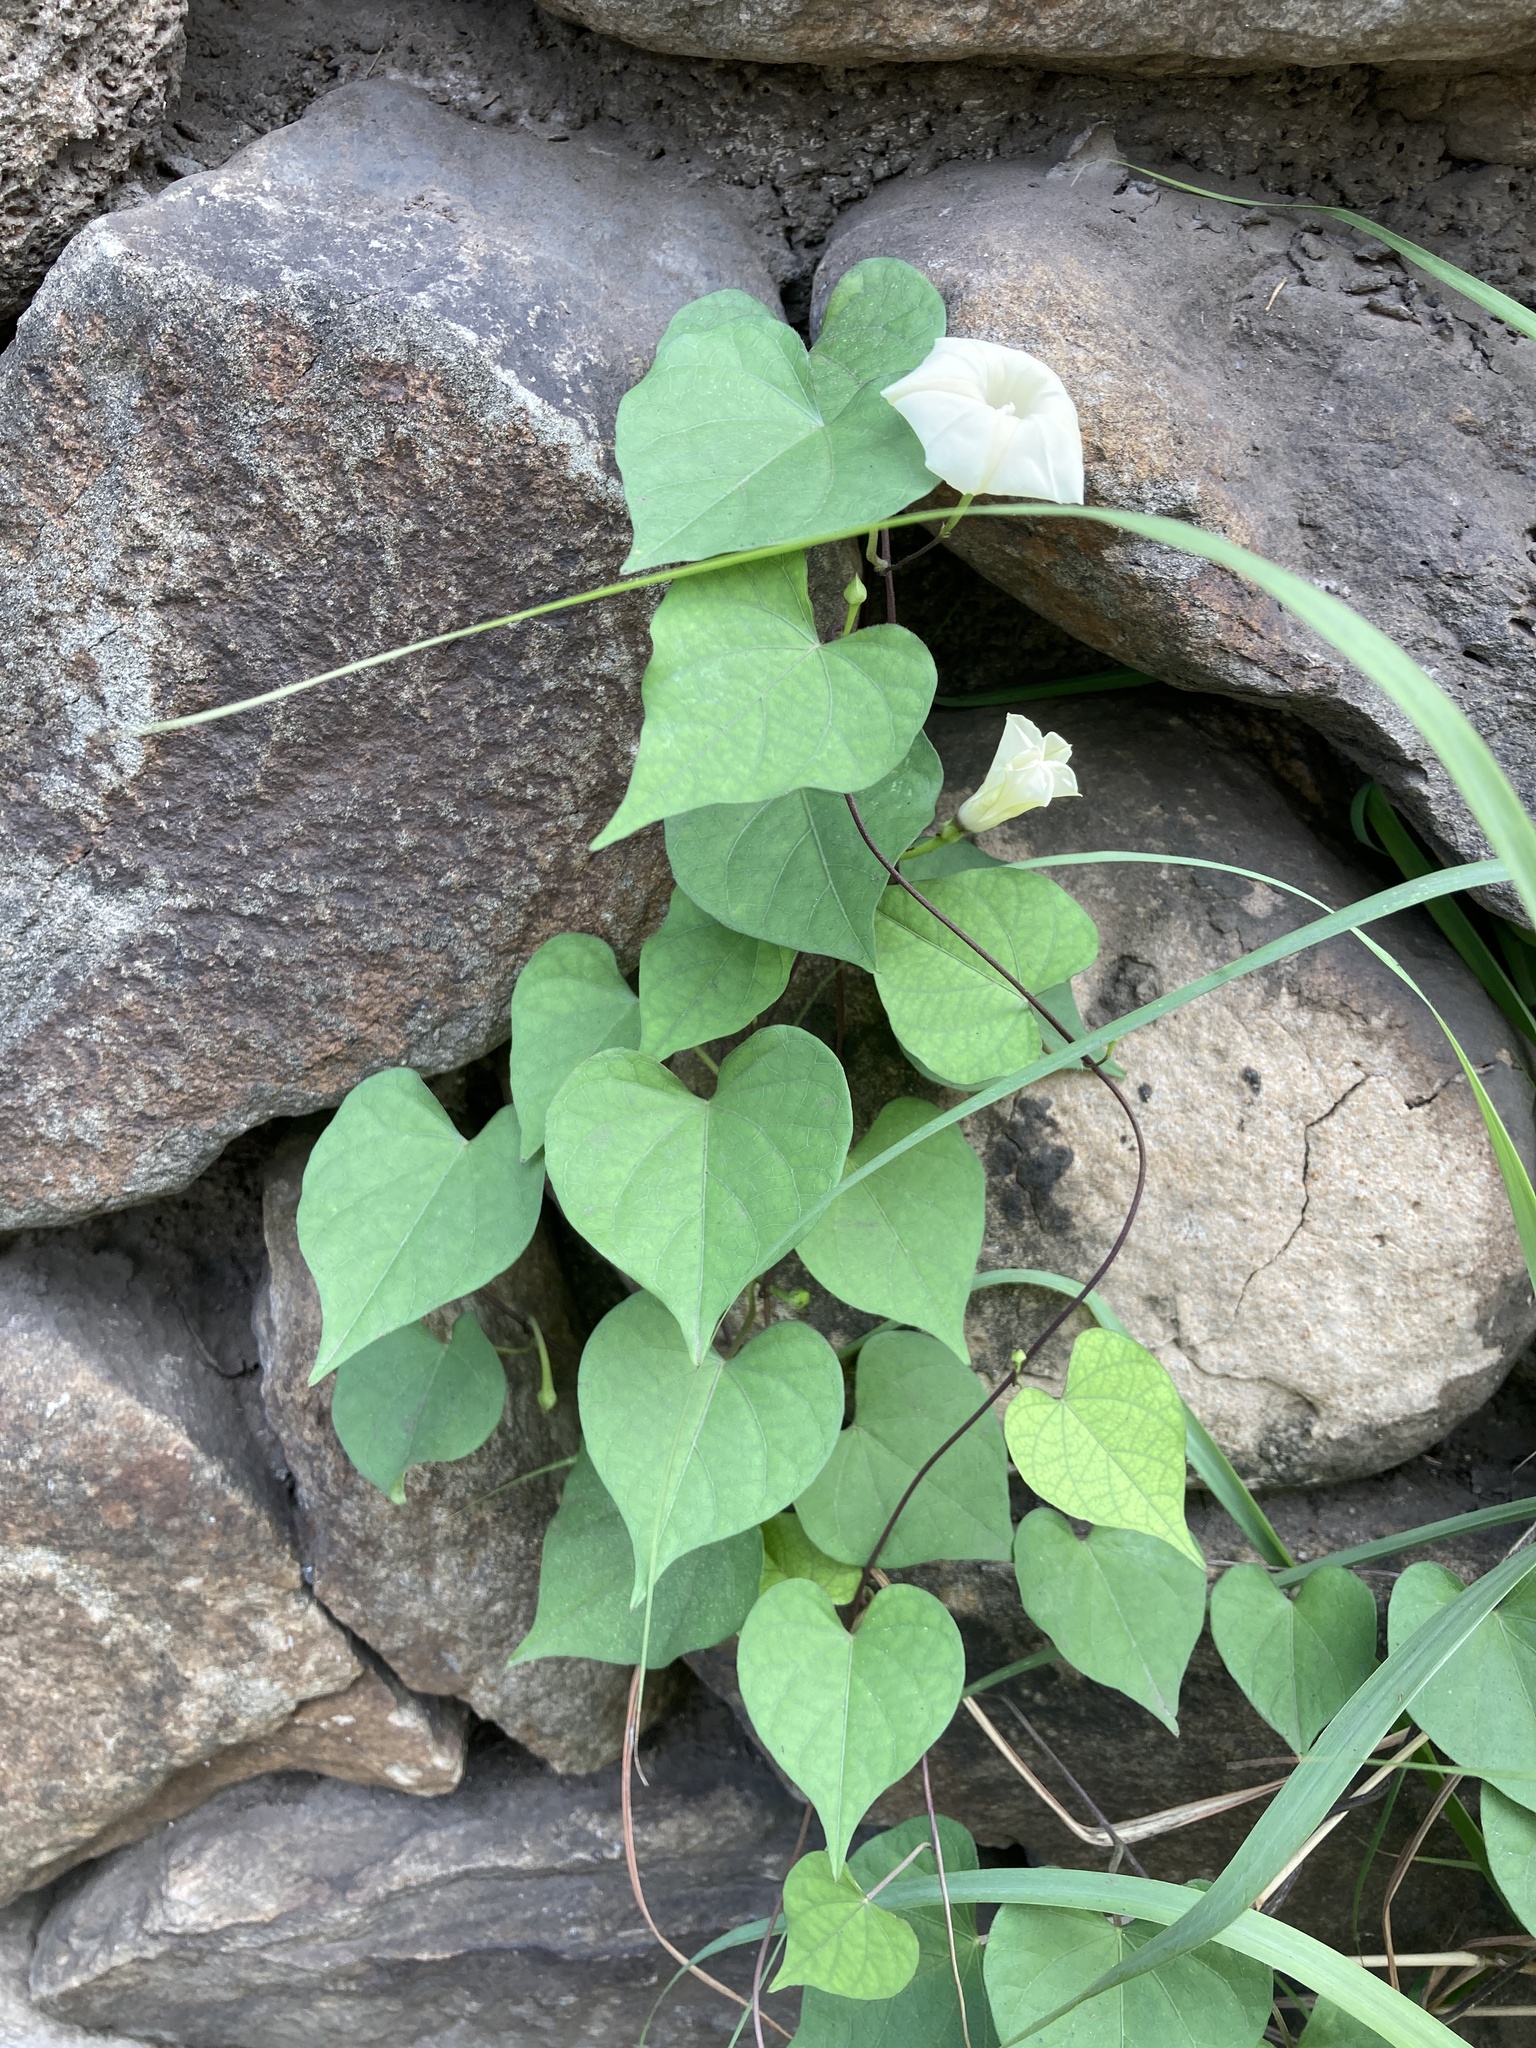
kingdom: Plantae
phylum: Tracheophyta
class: Magnoliopsida
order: Solanales
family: Convolvulaceae
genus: Ipomoea
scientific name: Ipomoea obscura
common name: Obscure morning-glory
